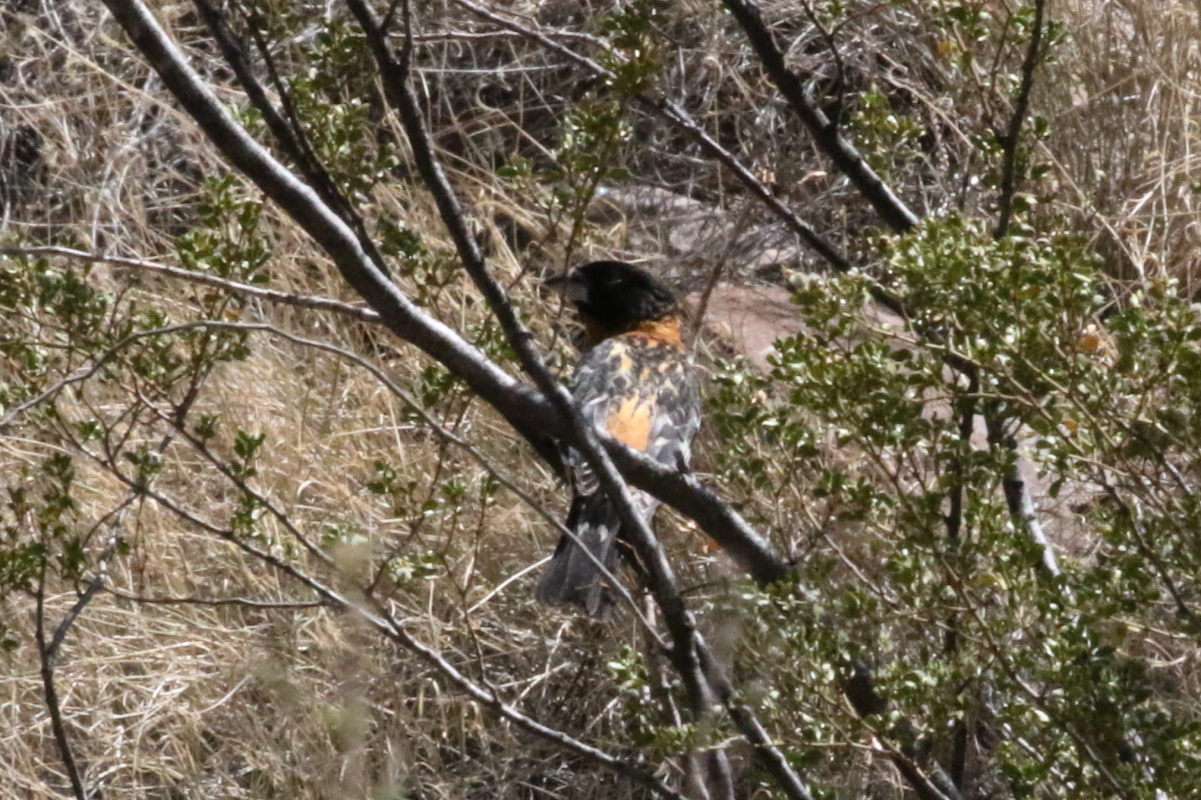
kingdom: Animalia
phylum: Chordata
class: Aves
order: Passeriformes
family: Cardinalidae
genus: Pheucticus
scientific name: Pheucticus melanocephalus
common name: Black-headed grosbeak
